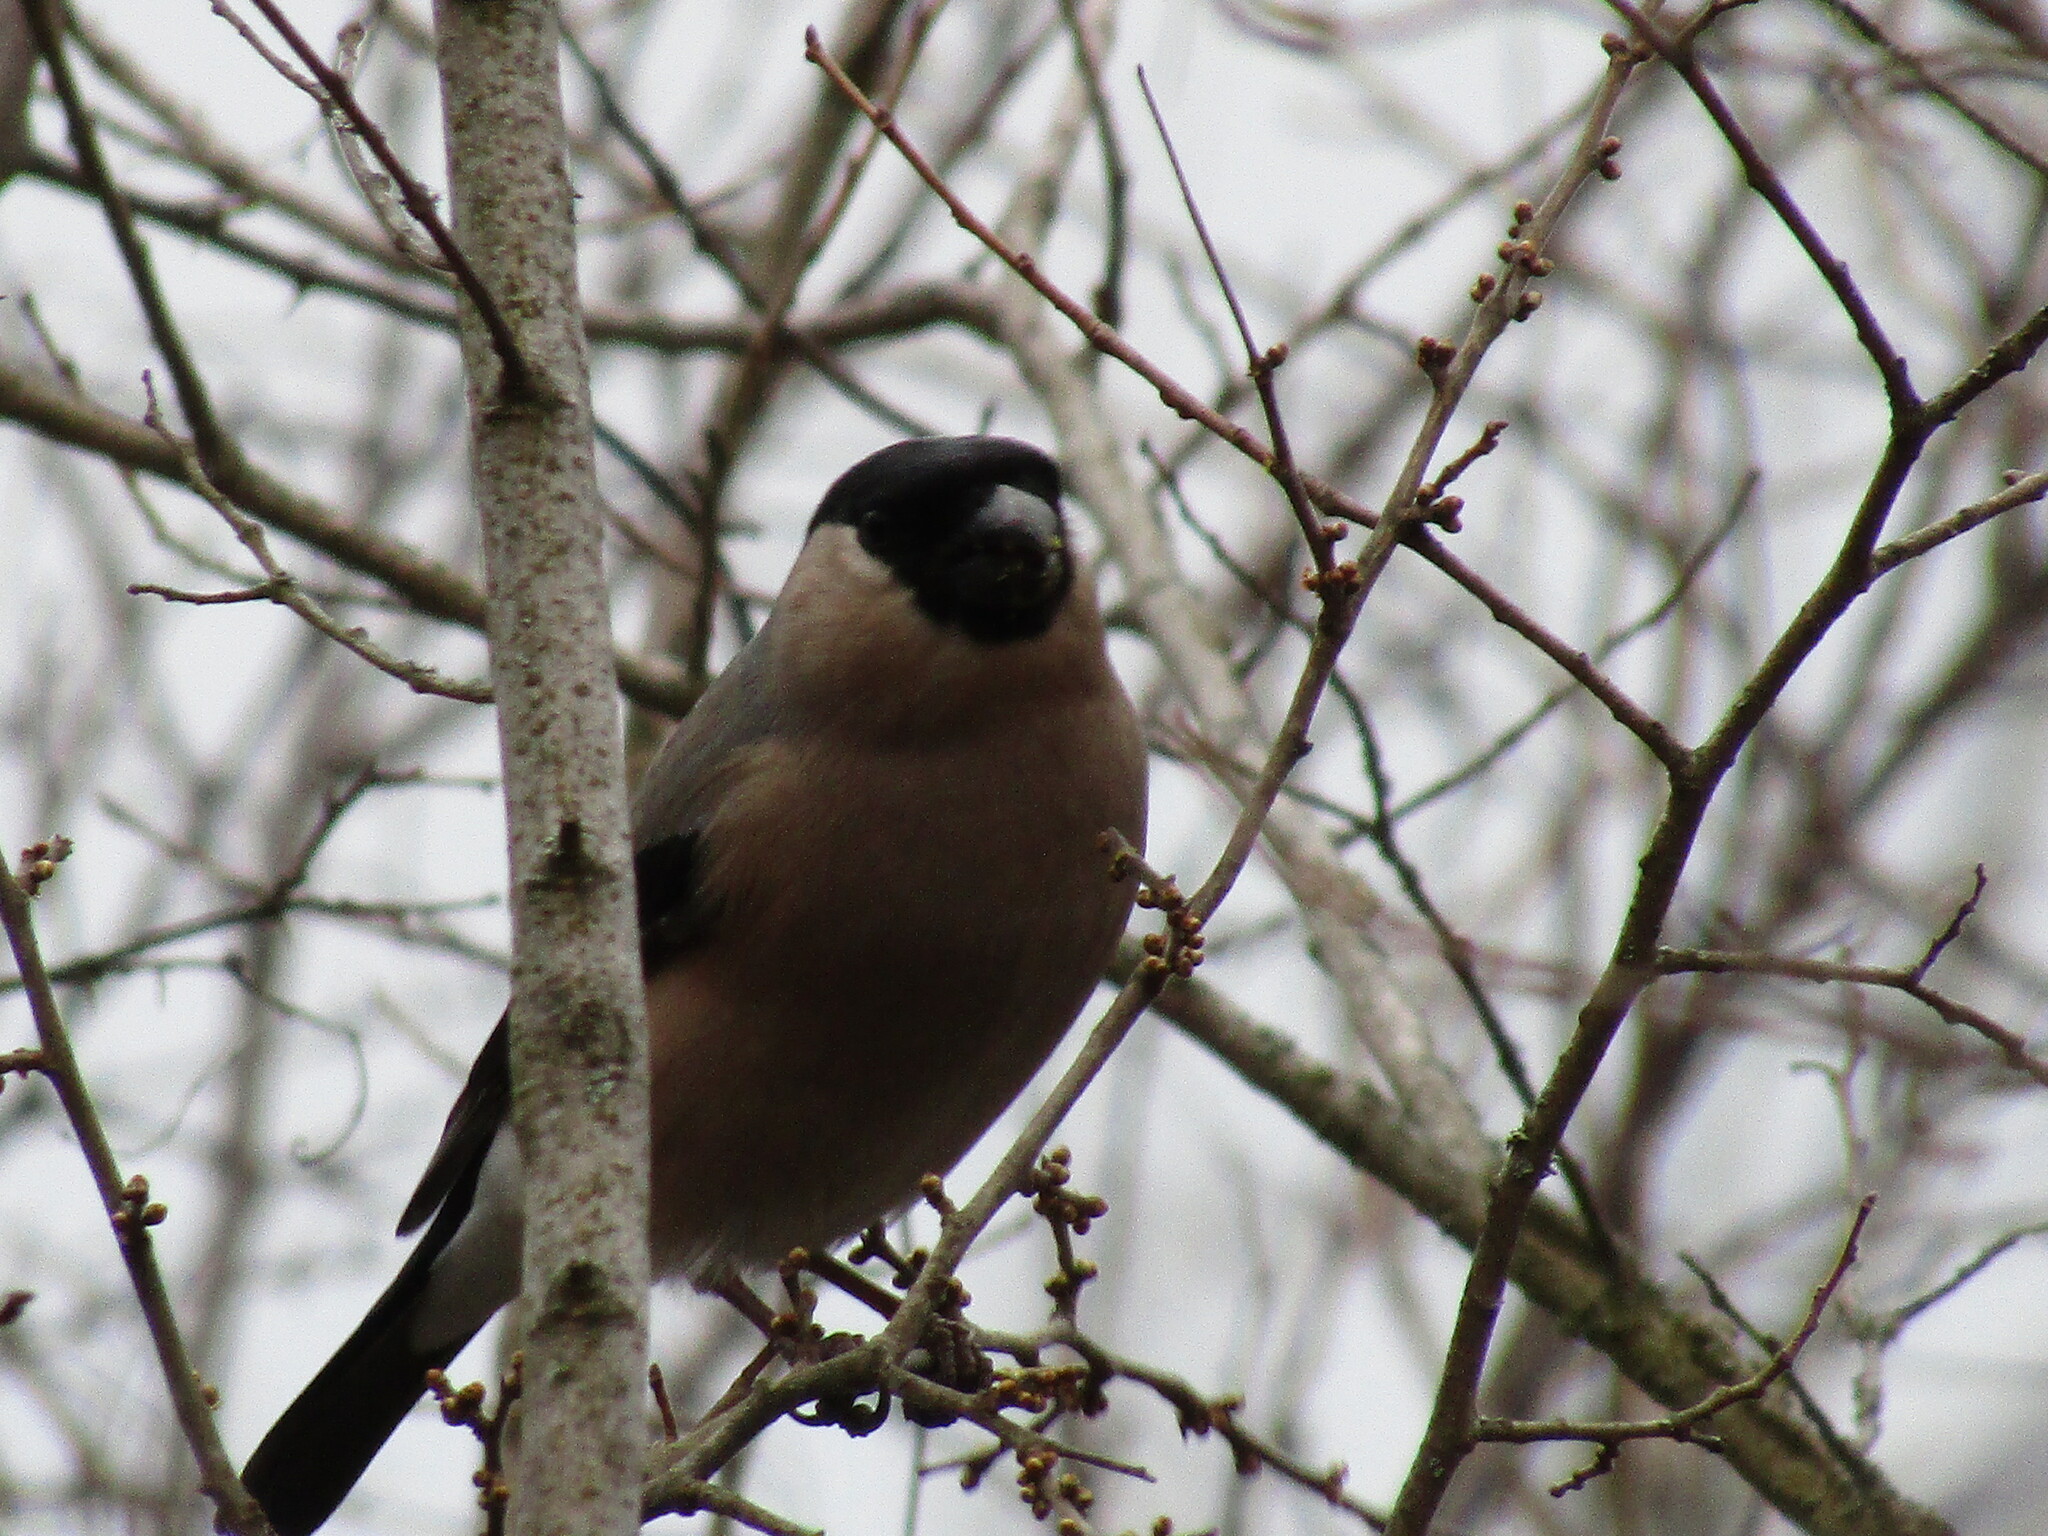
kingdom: Animalia
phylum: Chordata
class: Aves
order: Passeriformes
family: Fringillidae
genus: Pyrrhula
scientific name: Pyrrhula pyrrhula
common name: Eurasian bullfinch
